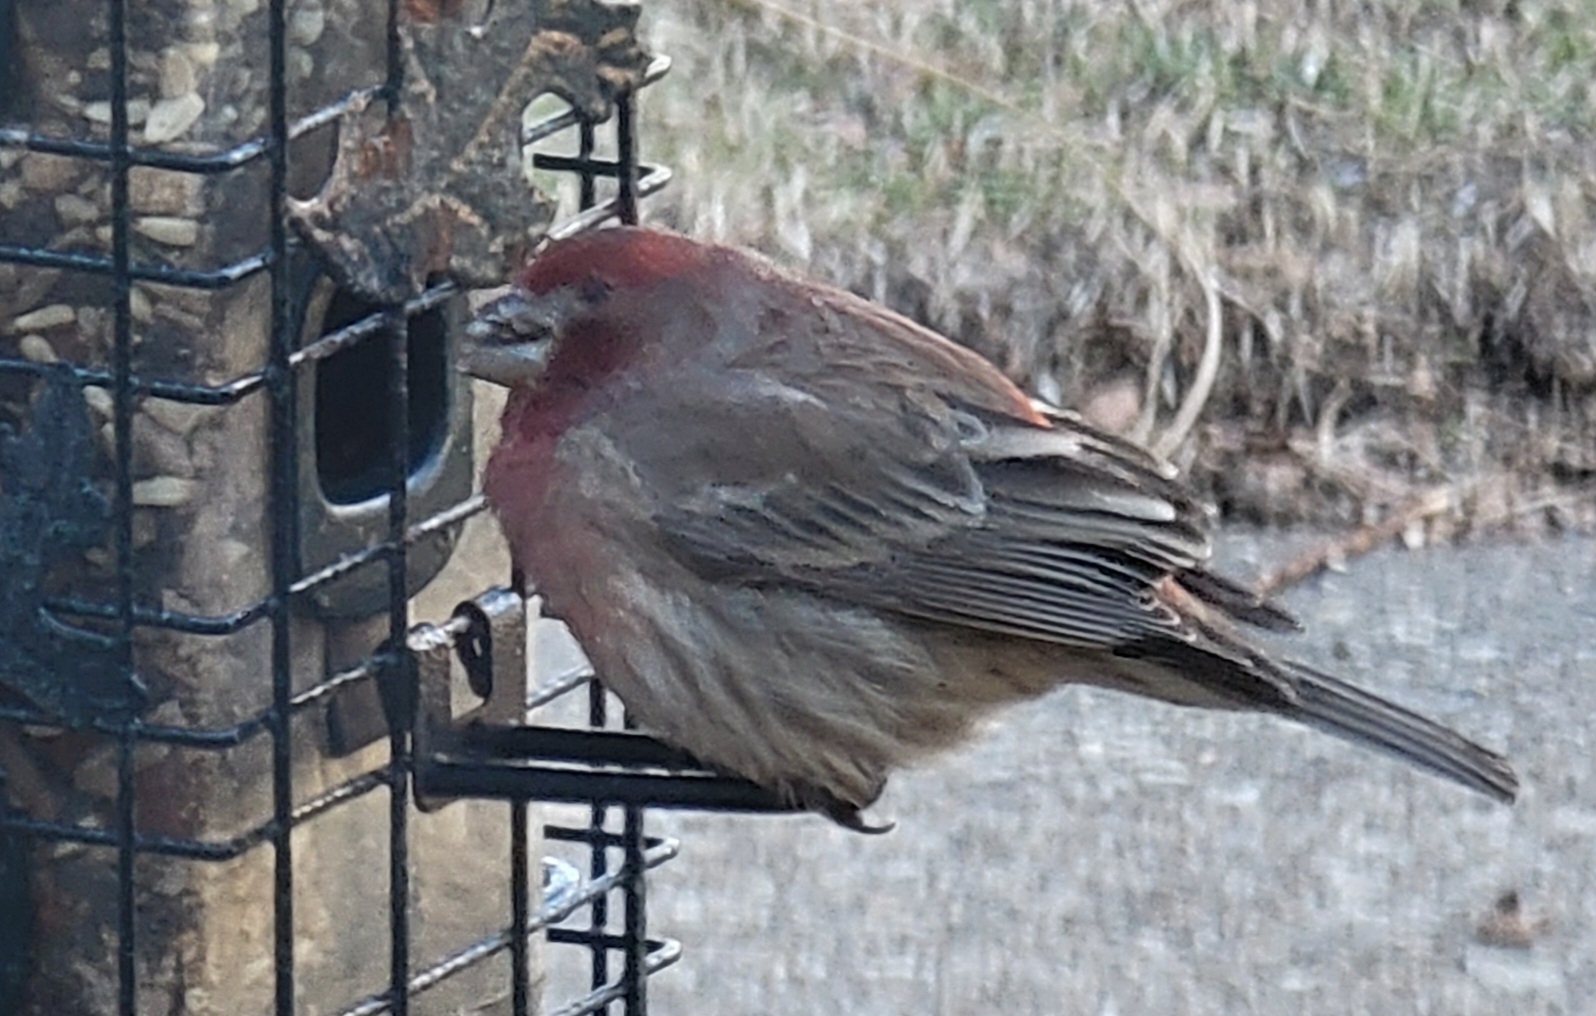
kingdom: Animalia
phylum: Chordata
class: Aves
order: Passeriformes
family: Fringillidae
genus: Haemorhous
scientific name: Haemorhous mexicanus
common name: House finch
